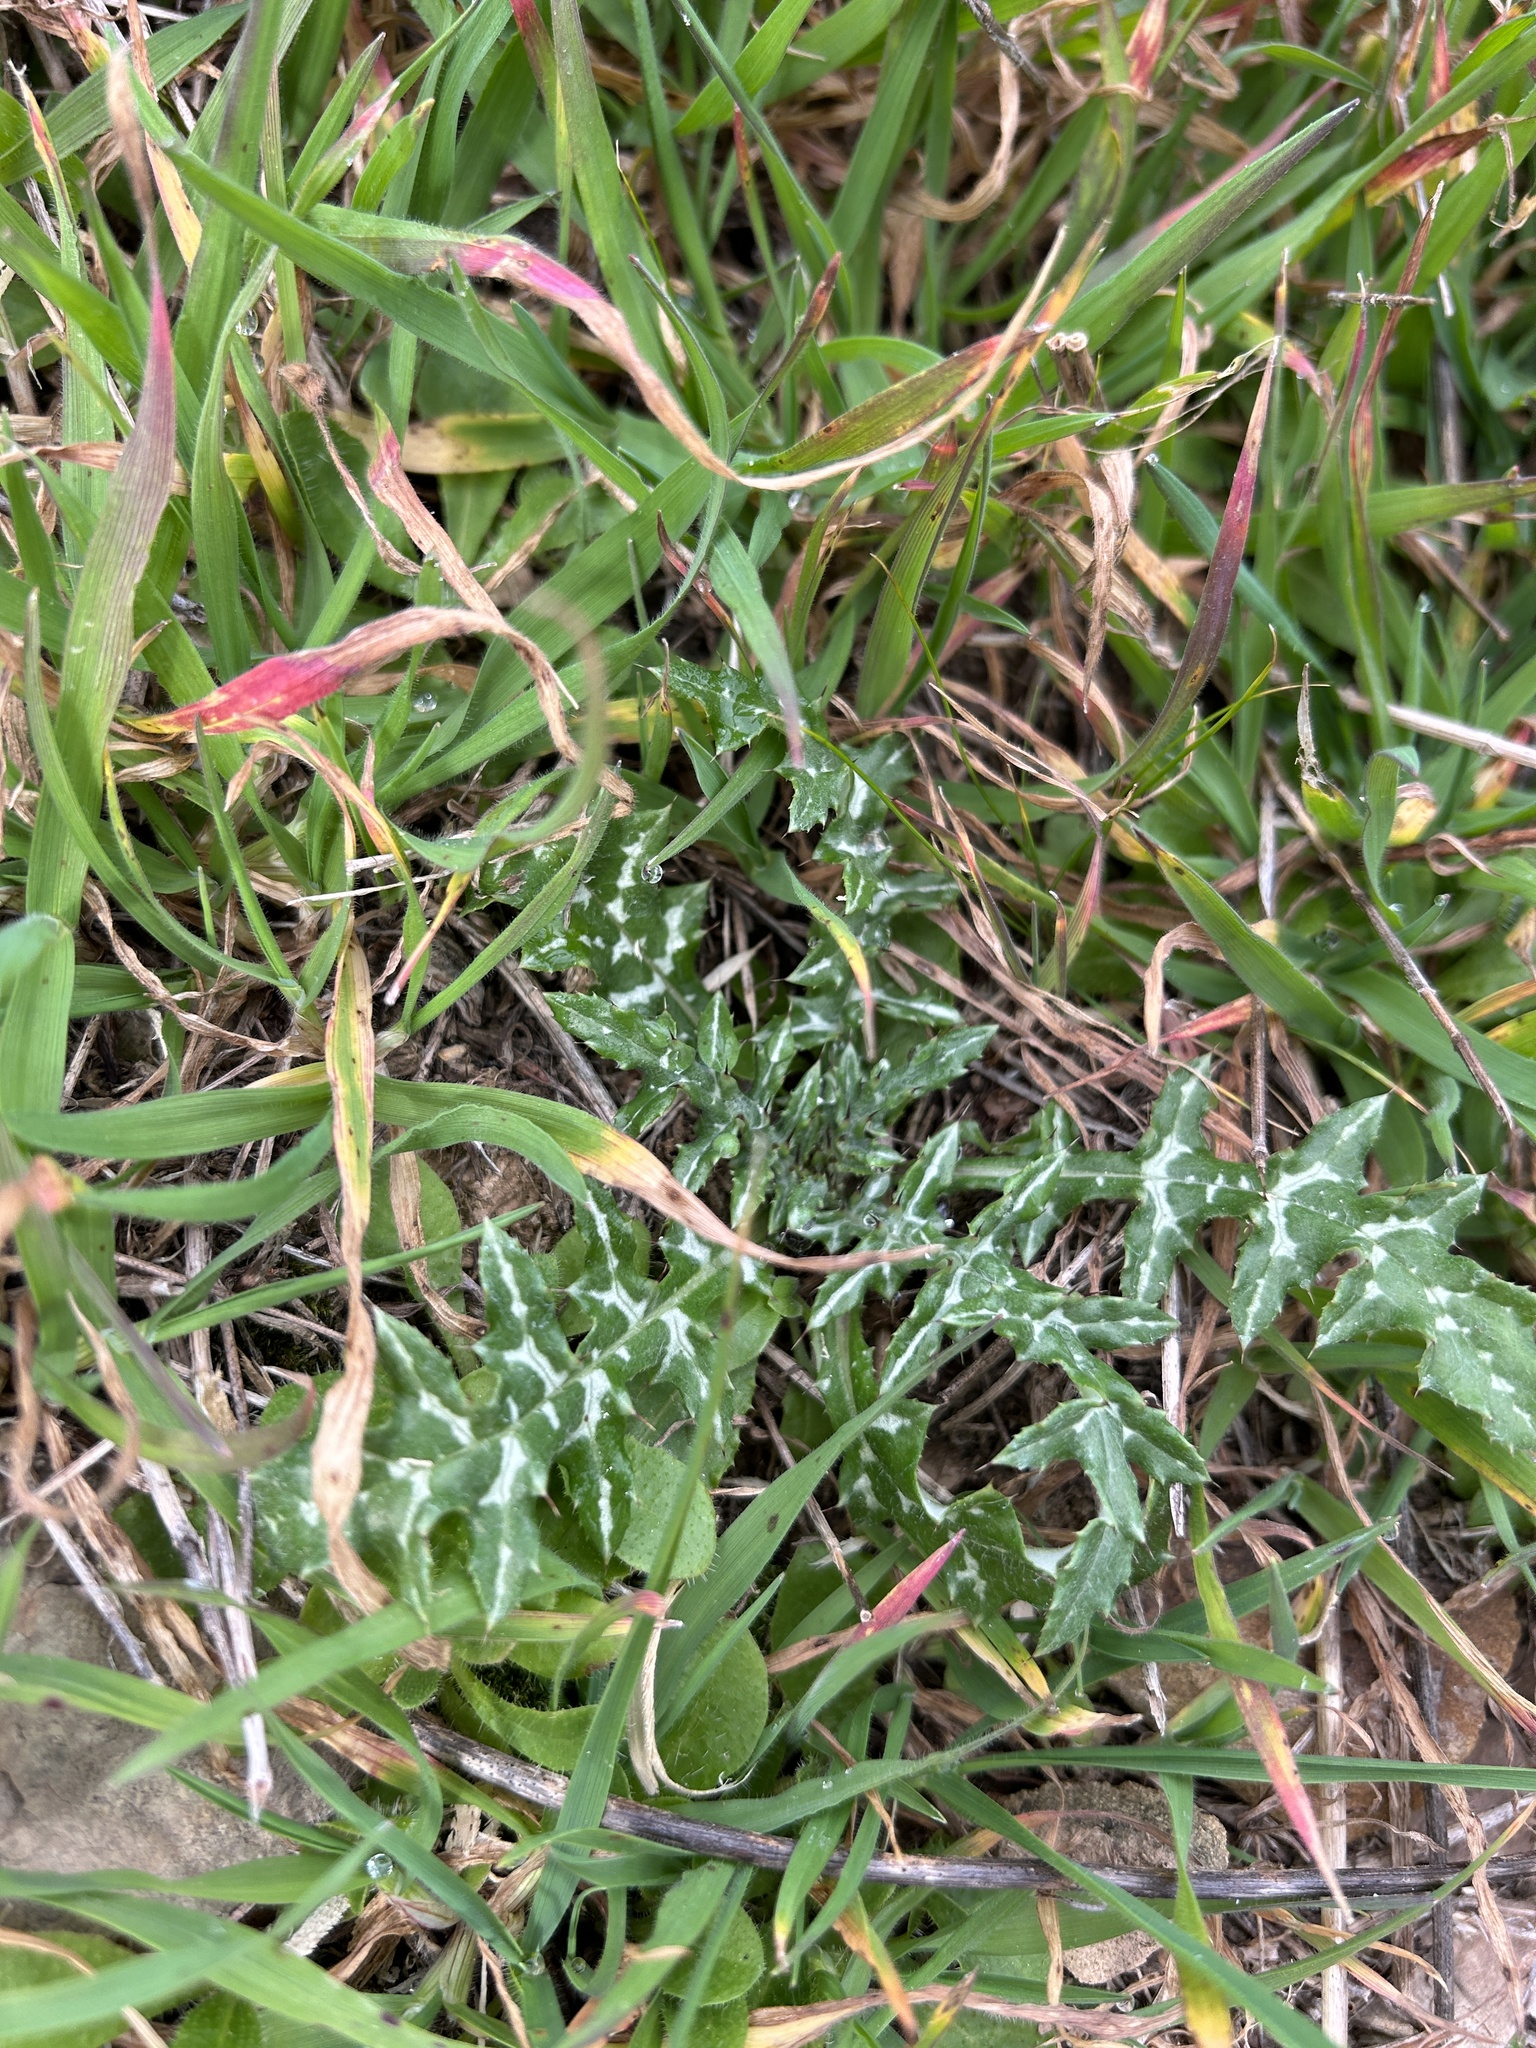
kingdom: Plantae
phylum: Tracheophyta
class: Magnoliopsida
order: Asterales
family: Asteraceae
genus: Galactites
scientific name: Galactites tomentosa
